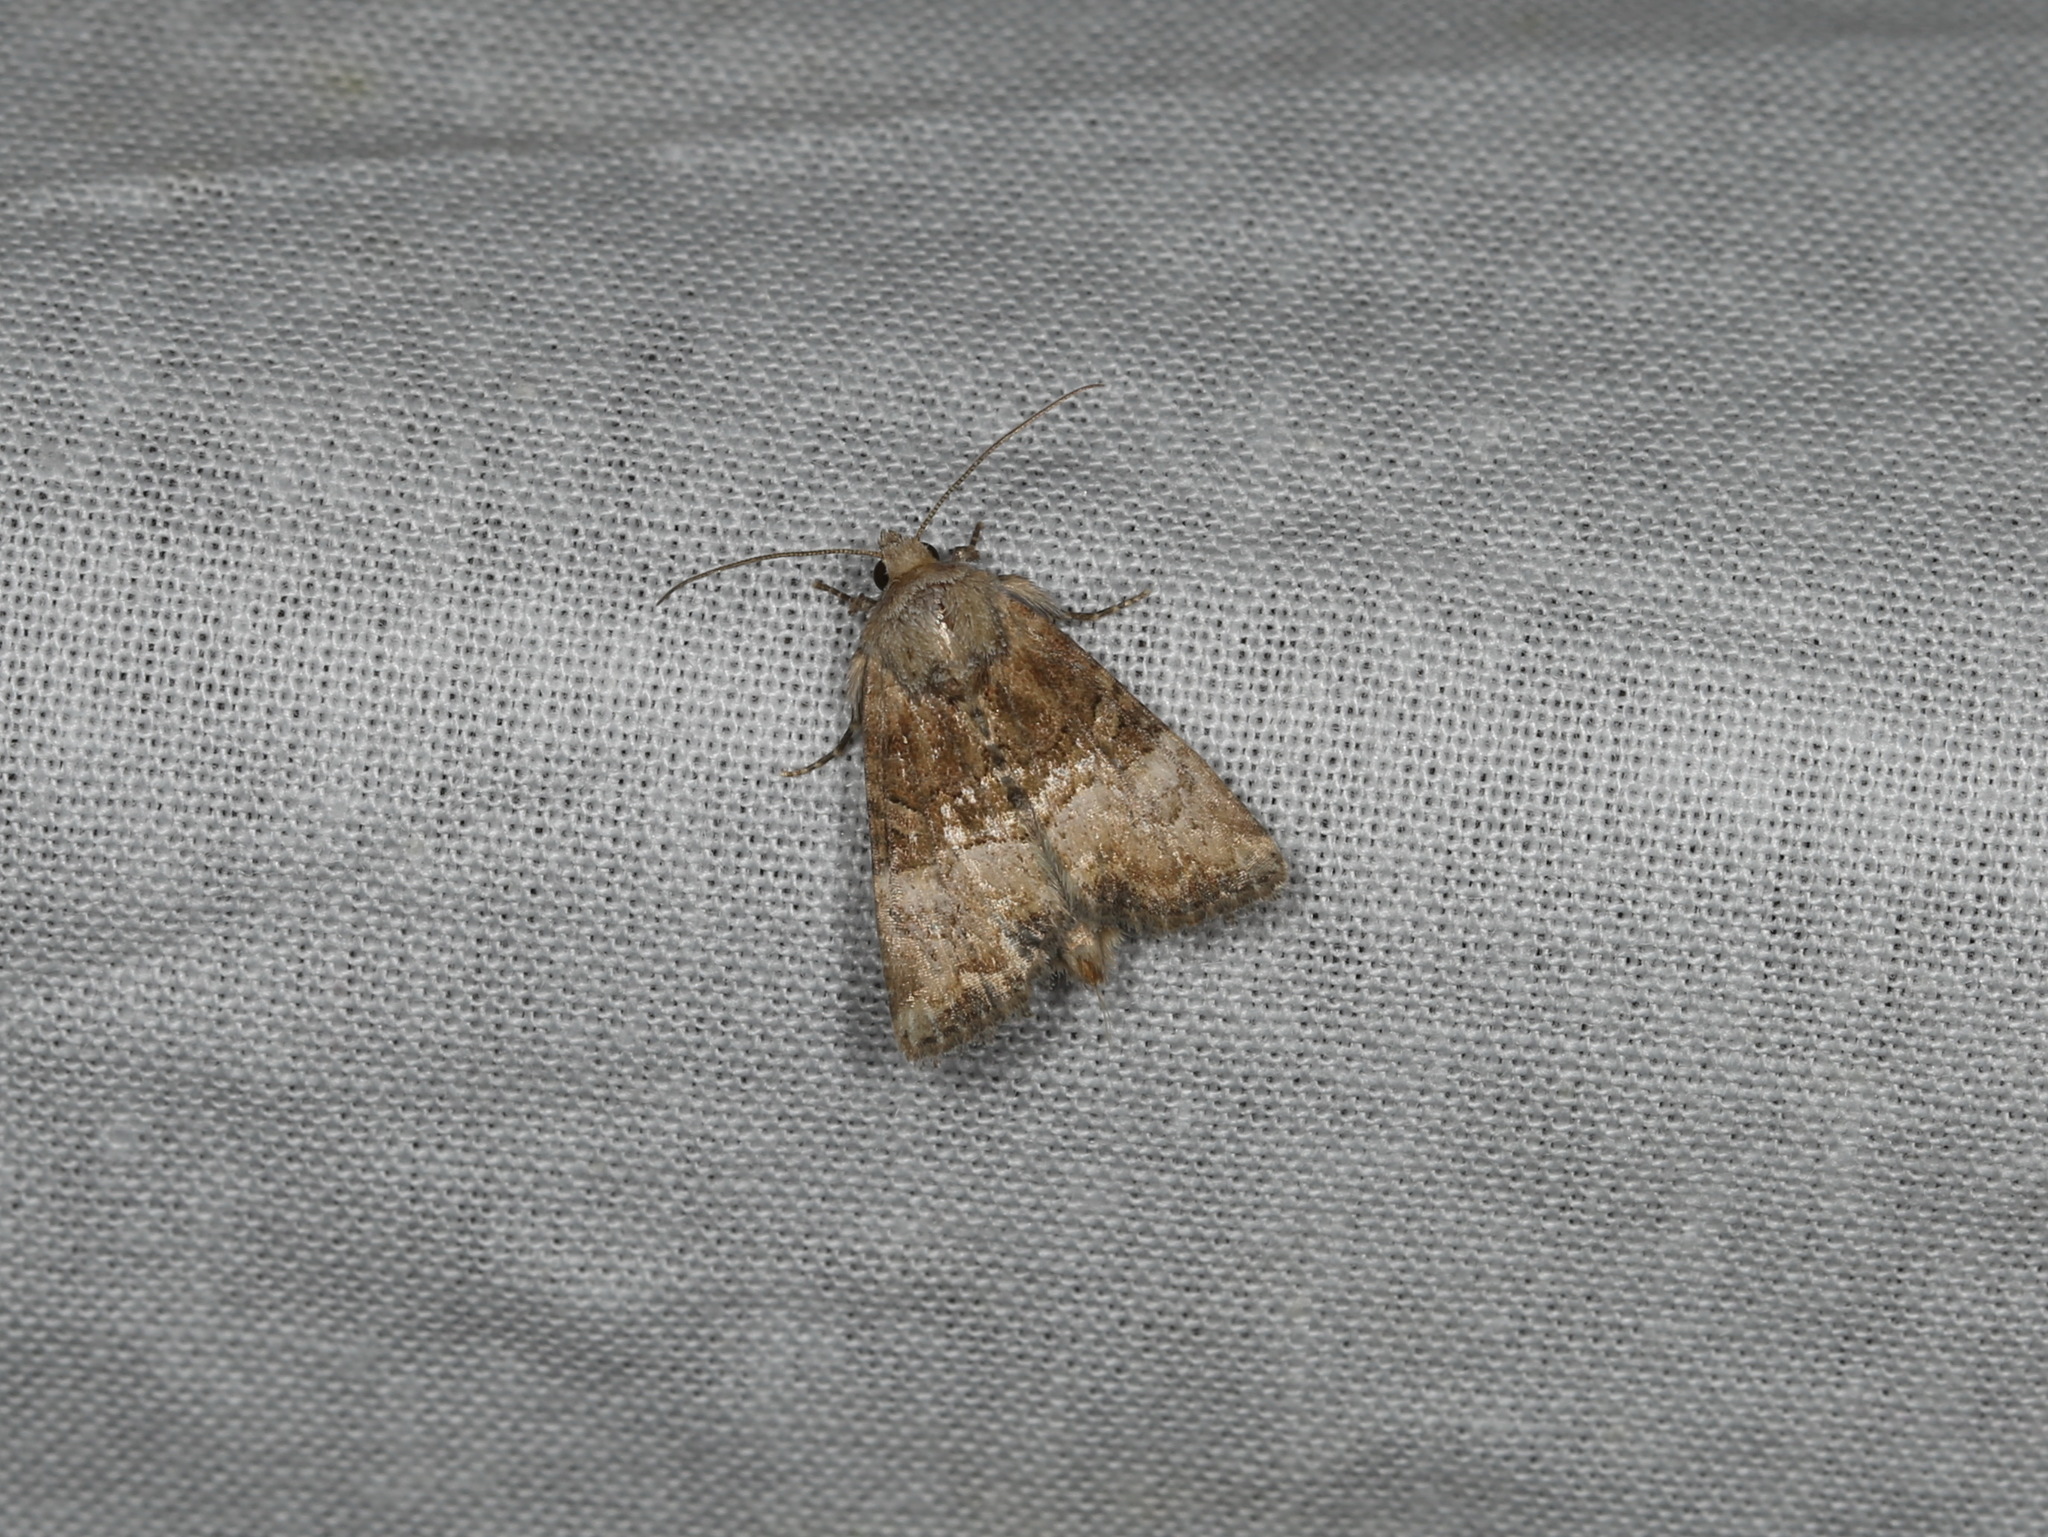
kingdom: Animalia
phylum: Arthropoda
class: Insecta
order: Lepidoptera
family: Noctuidae
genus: Mesoligia
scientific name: Mesoligia furuncula
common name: Cloaked minor
